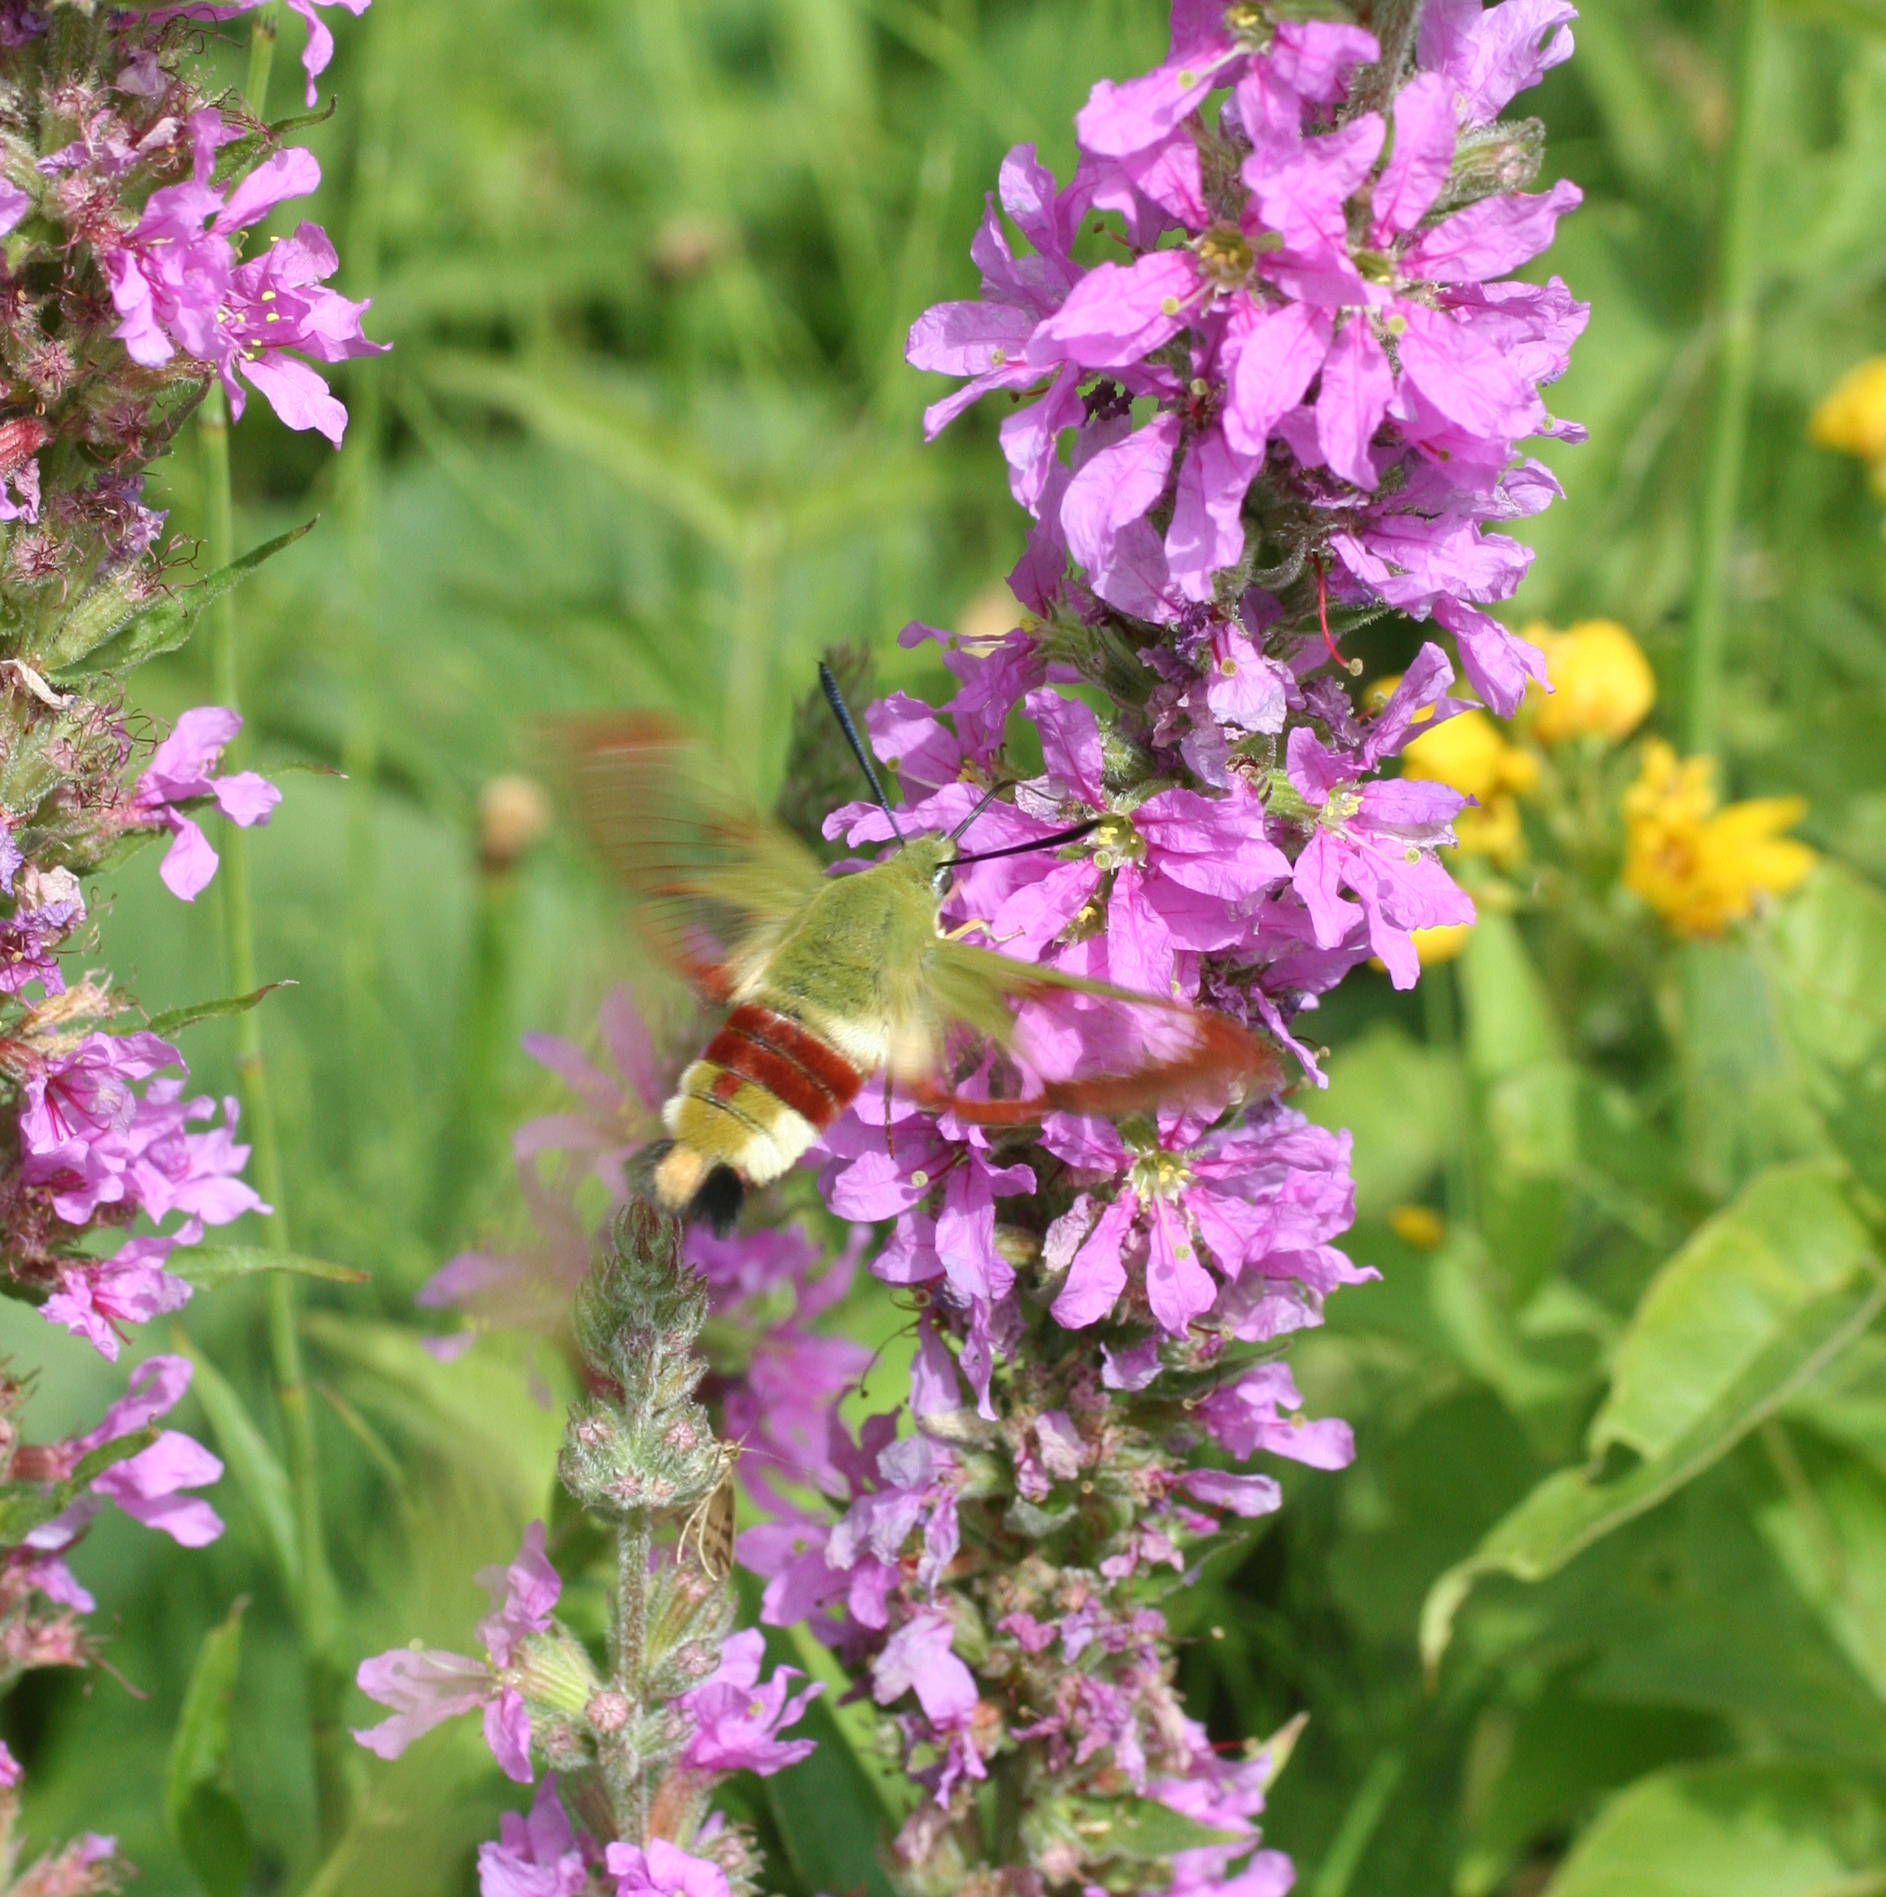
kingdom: Animalia
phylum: Arthropoda
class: Insecta
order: Lepidoptera
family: Sphingidae
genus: Hemaris
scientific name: Hemaris fuciformis
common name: Broad-bordered bee hawk-moth
